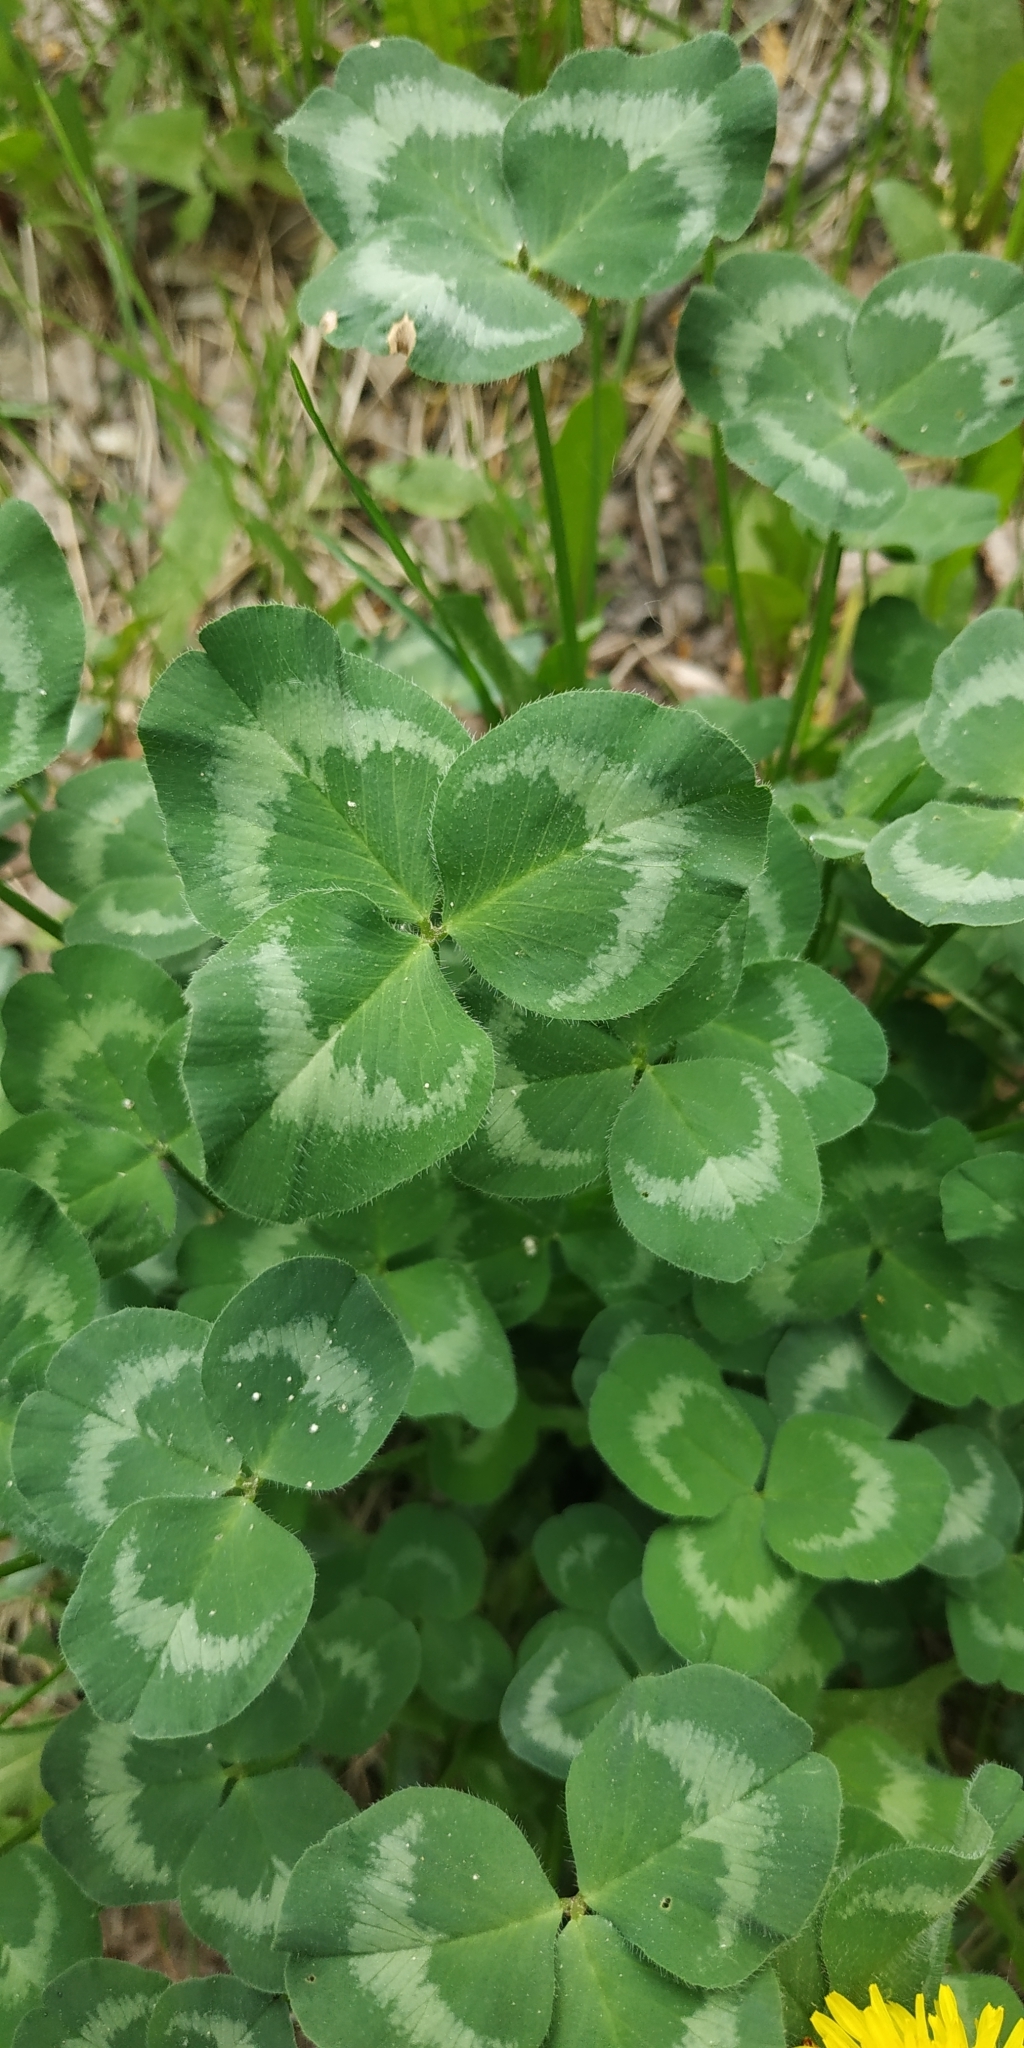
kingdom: Plantae
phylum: Tracheophyta
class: Magnoliopsida
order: Fabales
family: Fabaceae
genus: Trifolium
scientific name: Trifolium pratense
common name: Red clover
